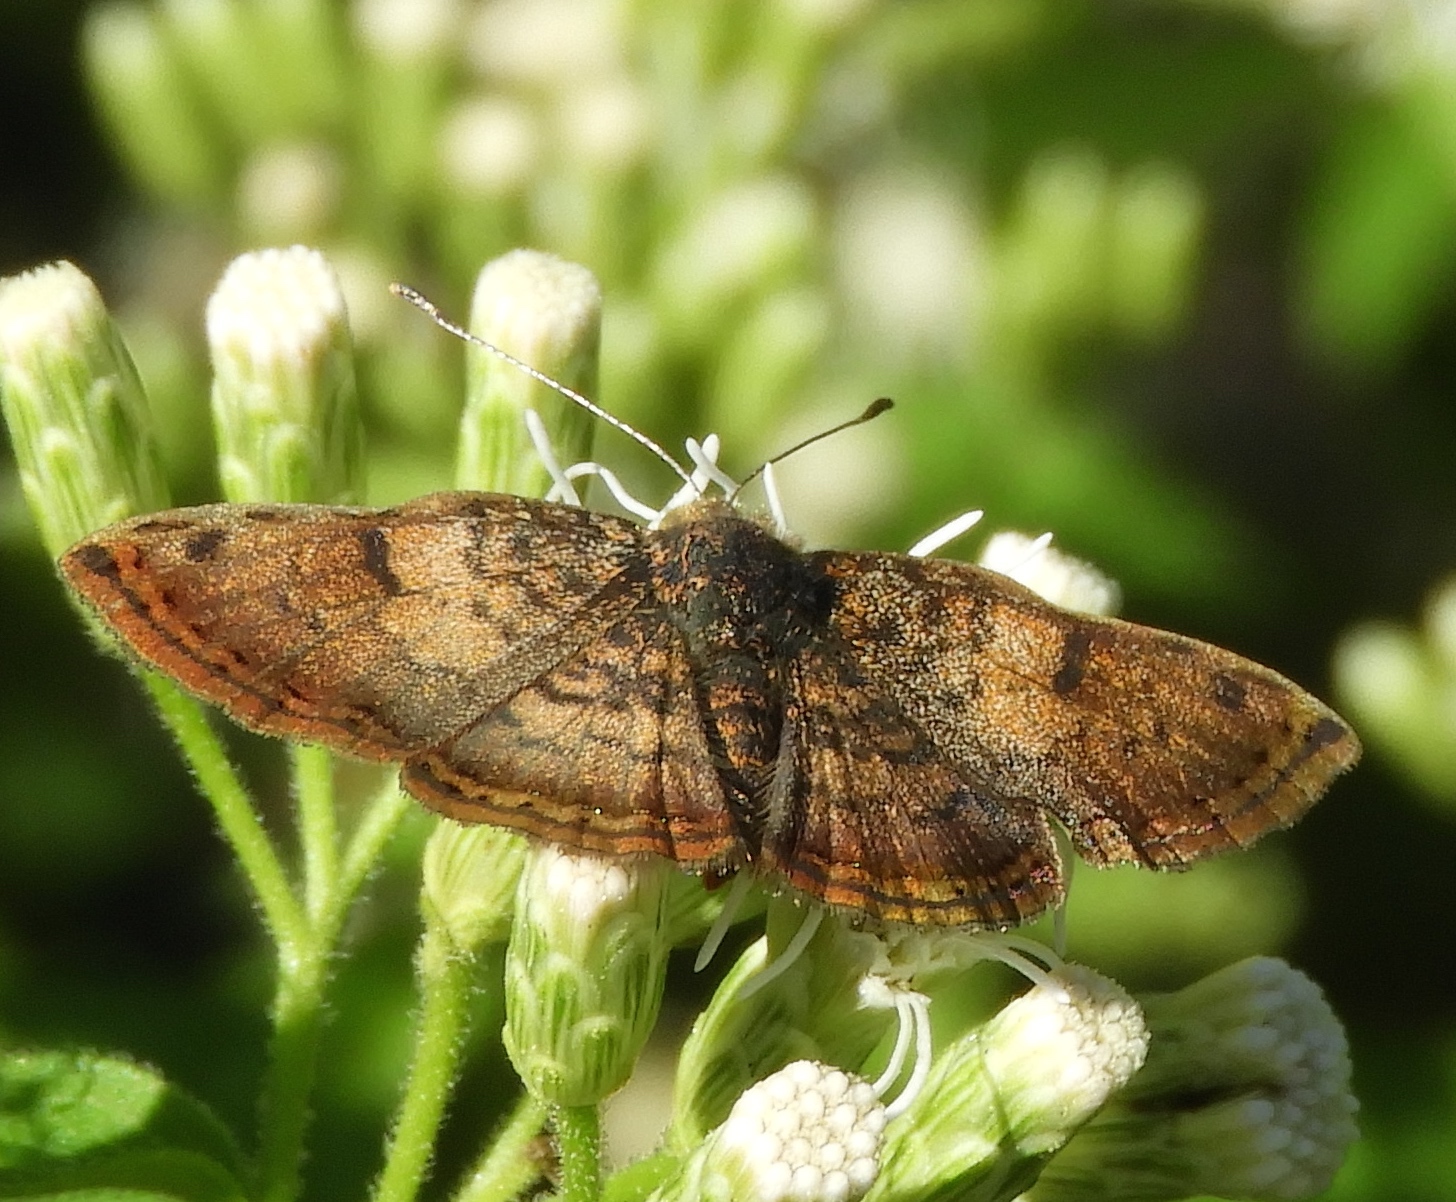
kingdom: Animalia
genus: Caria
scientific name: Caria ino
